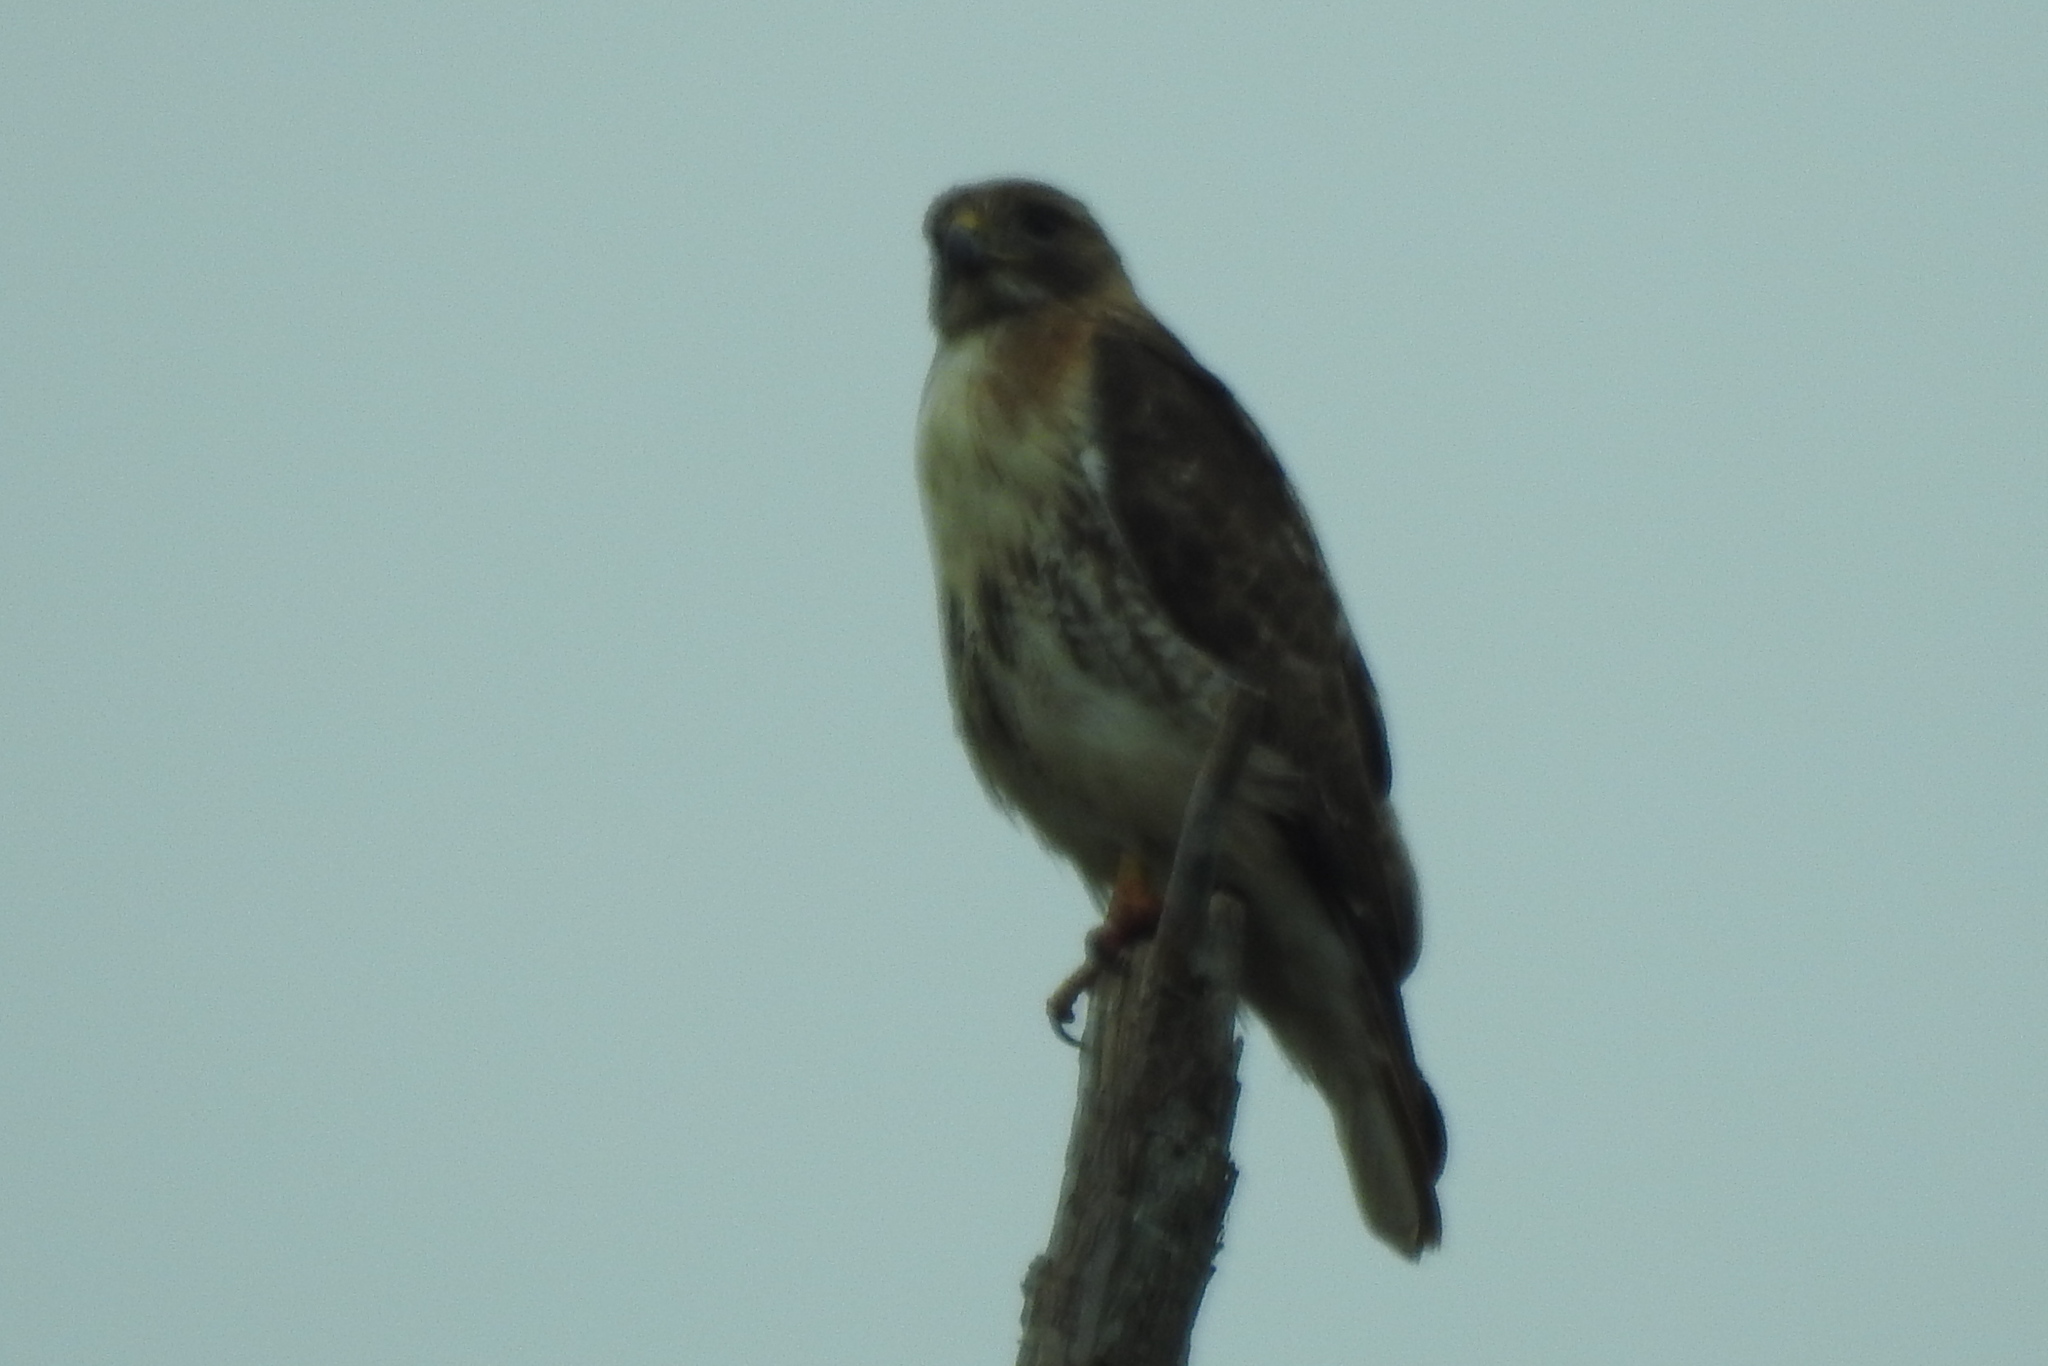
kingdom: Animalia
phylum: Chordata
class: Aves
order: Accipitriformes
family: Accipitridae
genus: Buteo
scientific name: Buteo jamaicensis
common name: Red-tailed hawk
